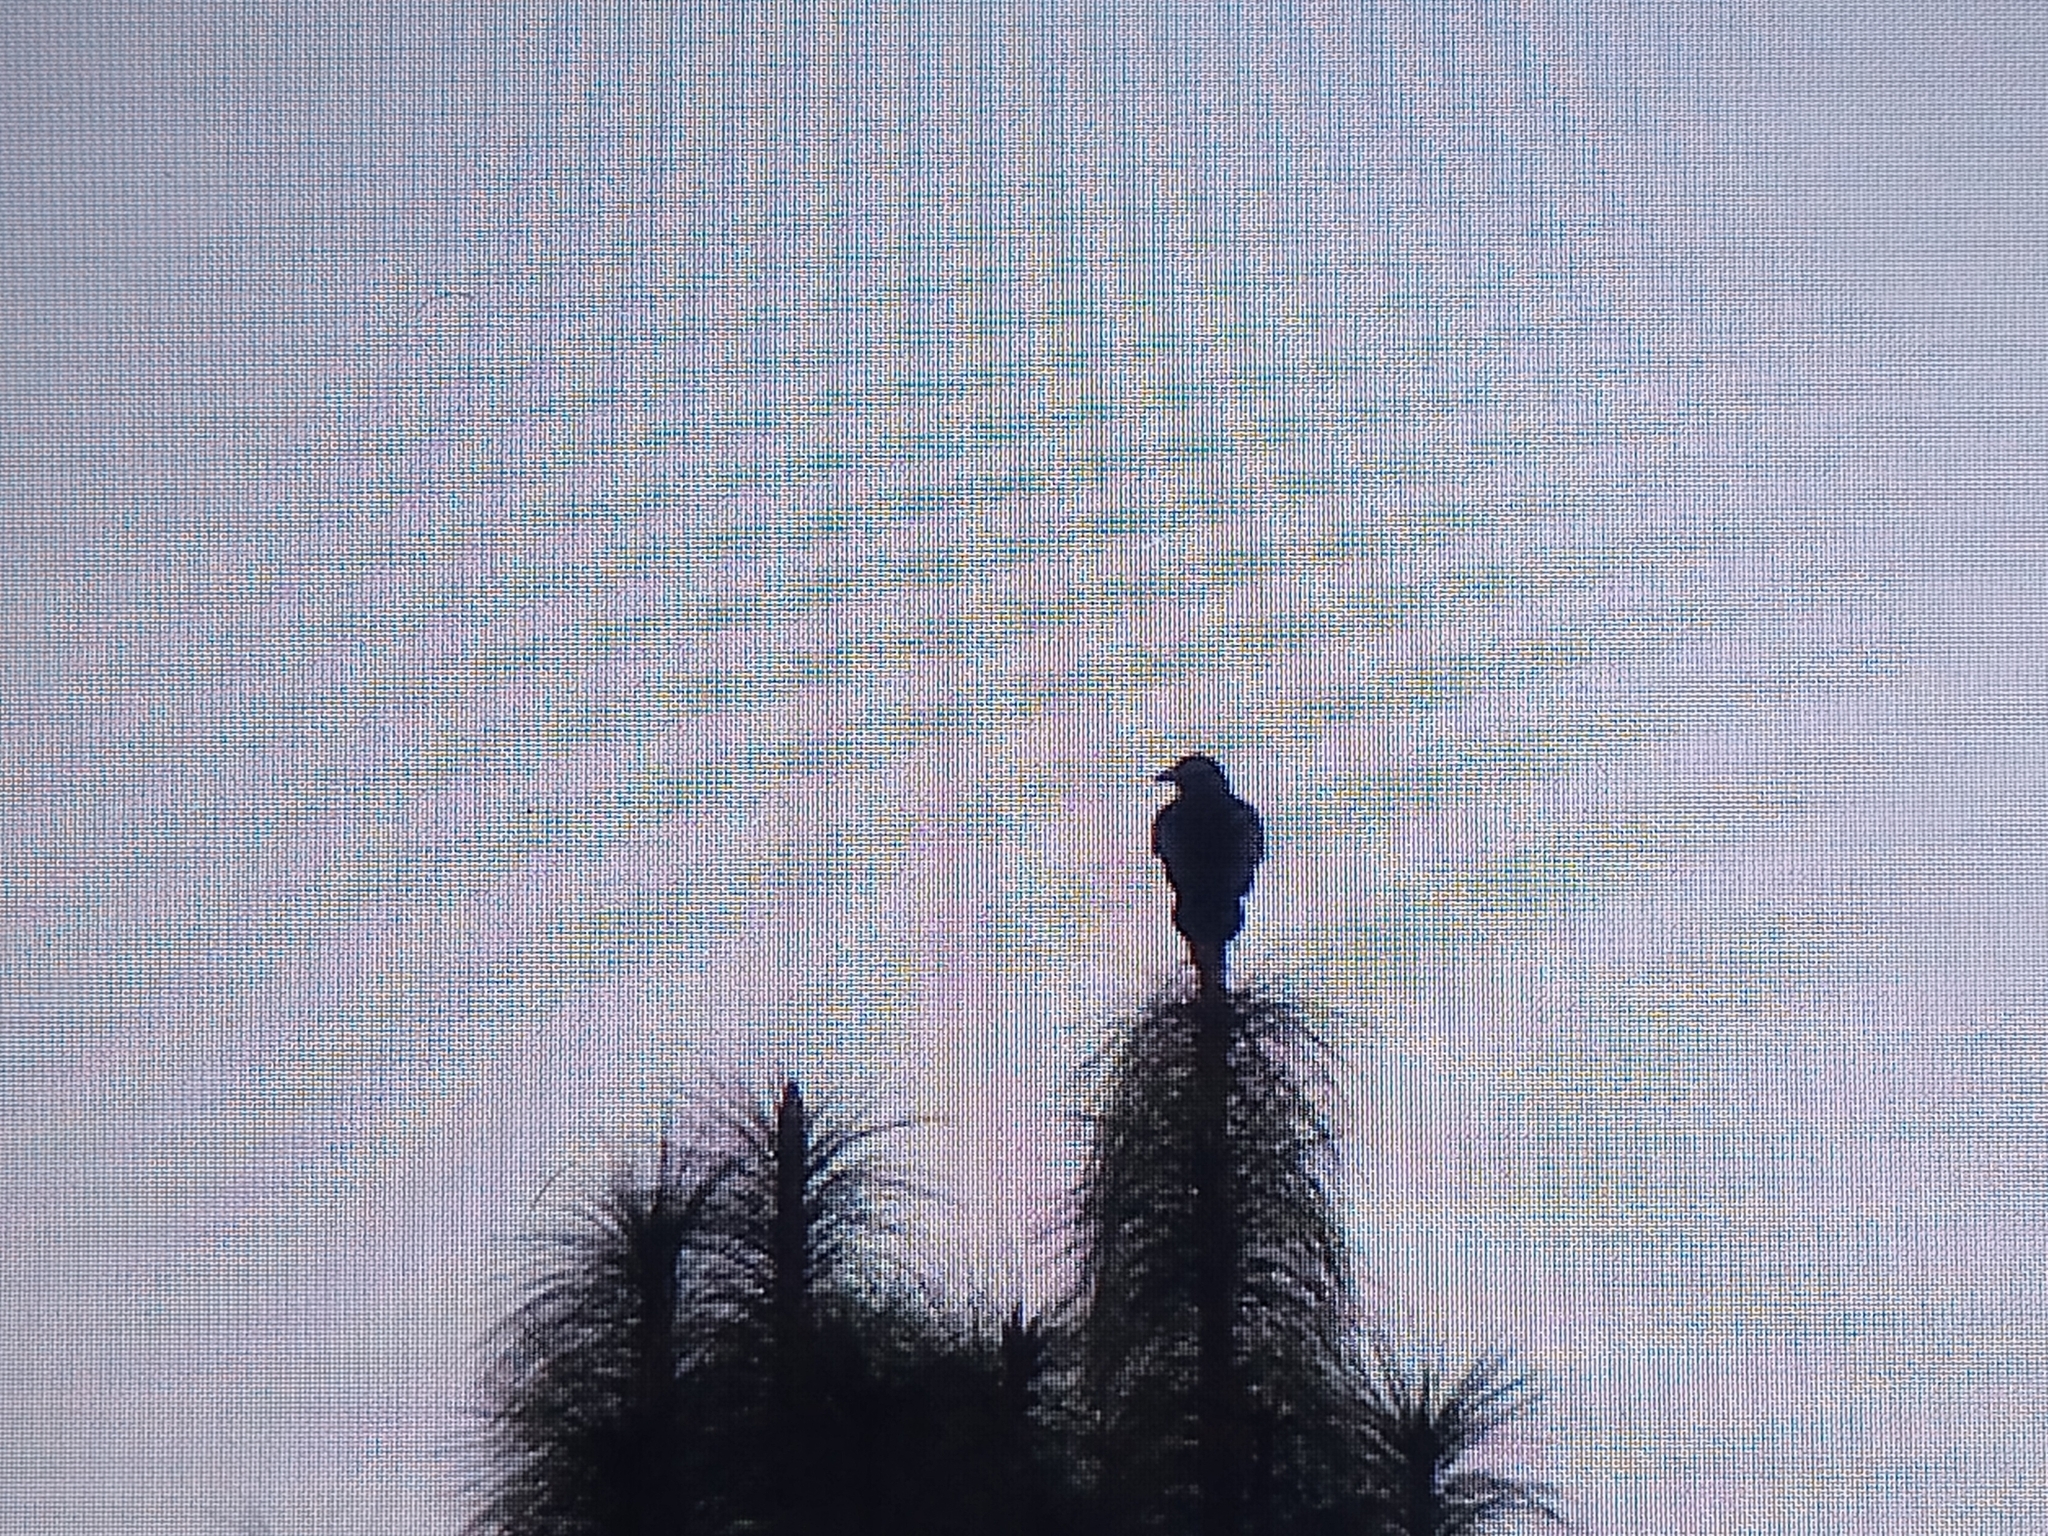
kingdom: Animalia
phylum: Chordata
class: Aves
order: Passeriformes
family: Corvidae
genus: Corvus
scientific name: Corvus corax
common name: Common raven
